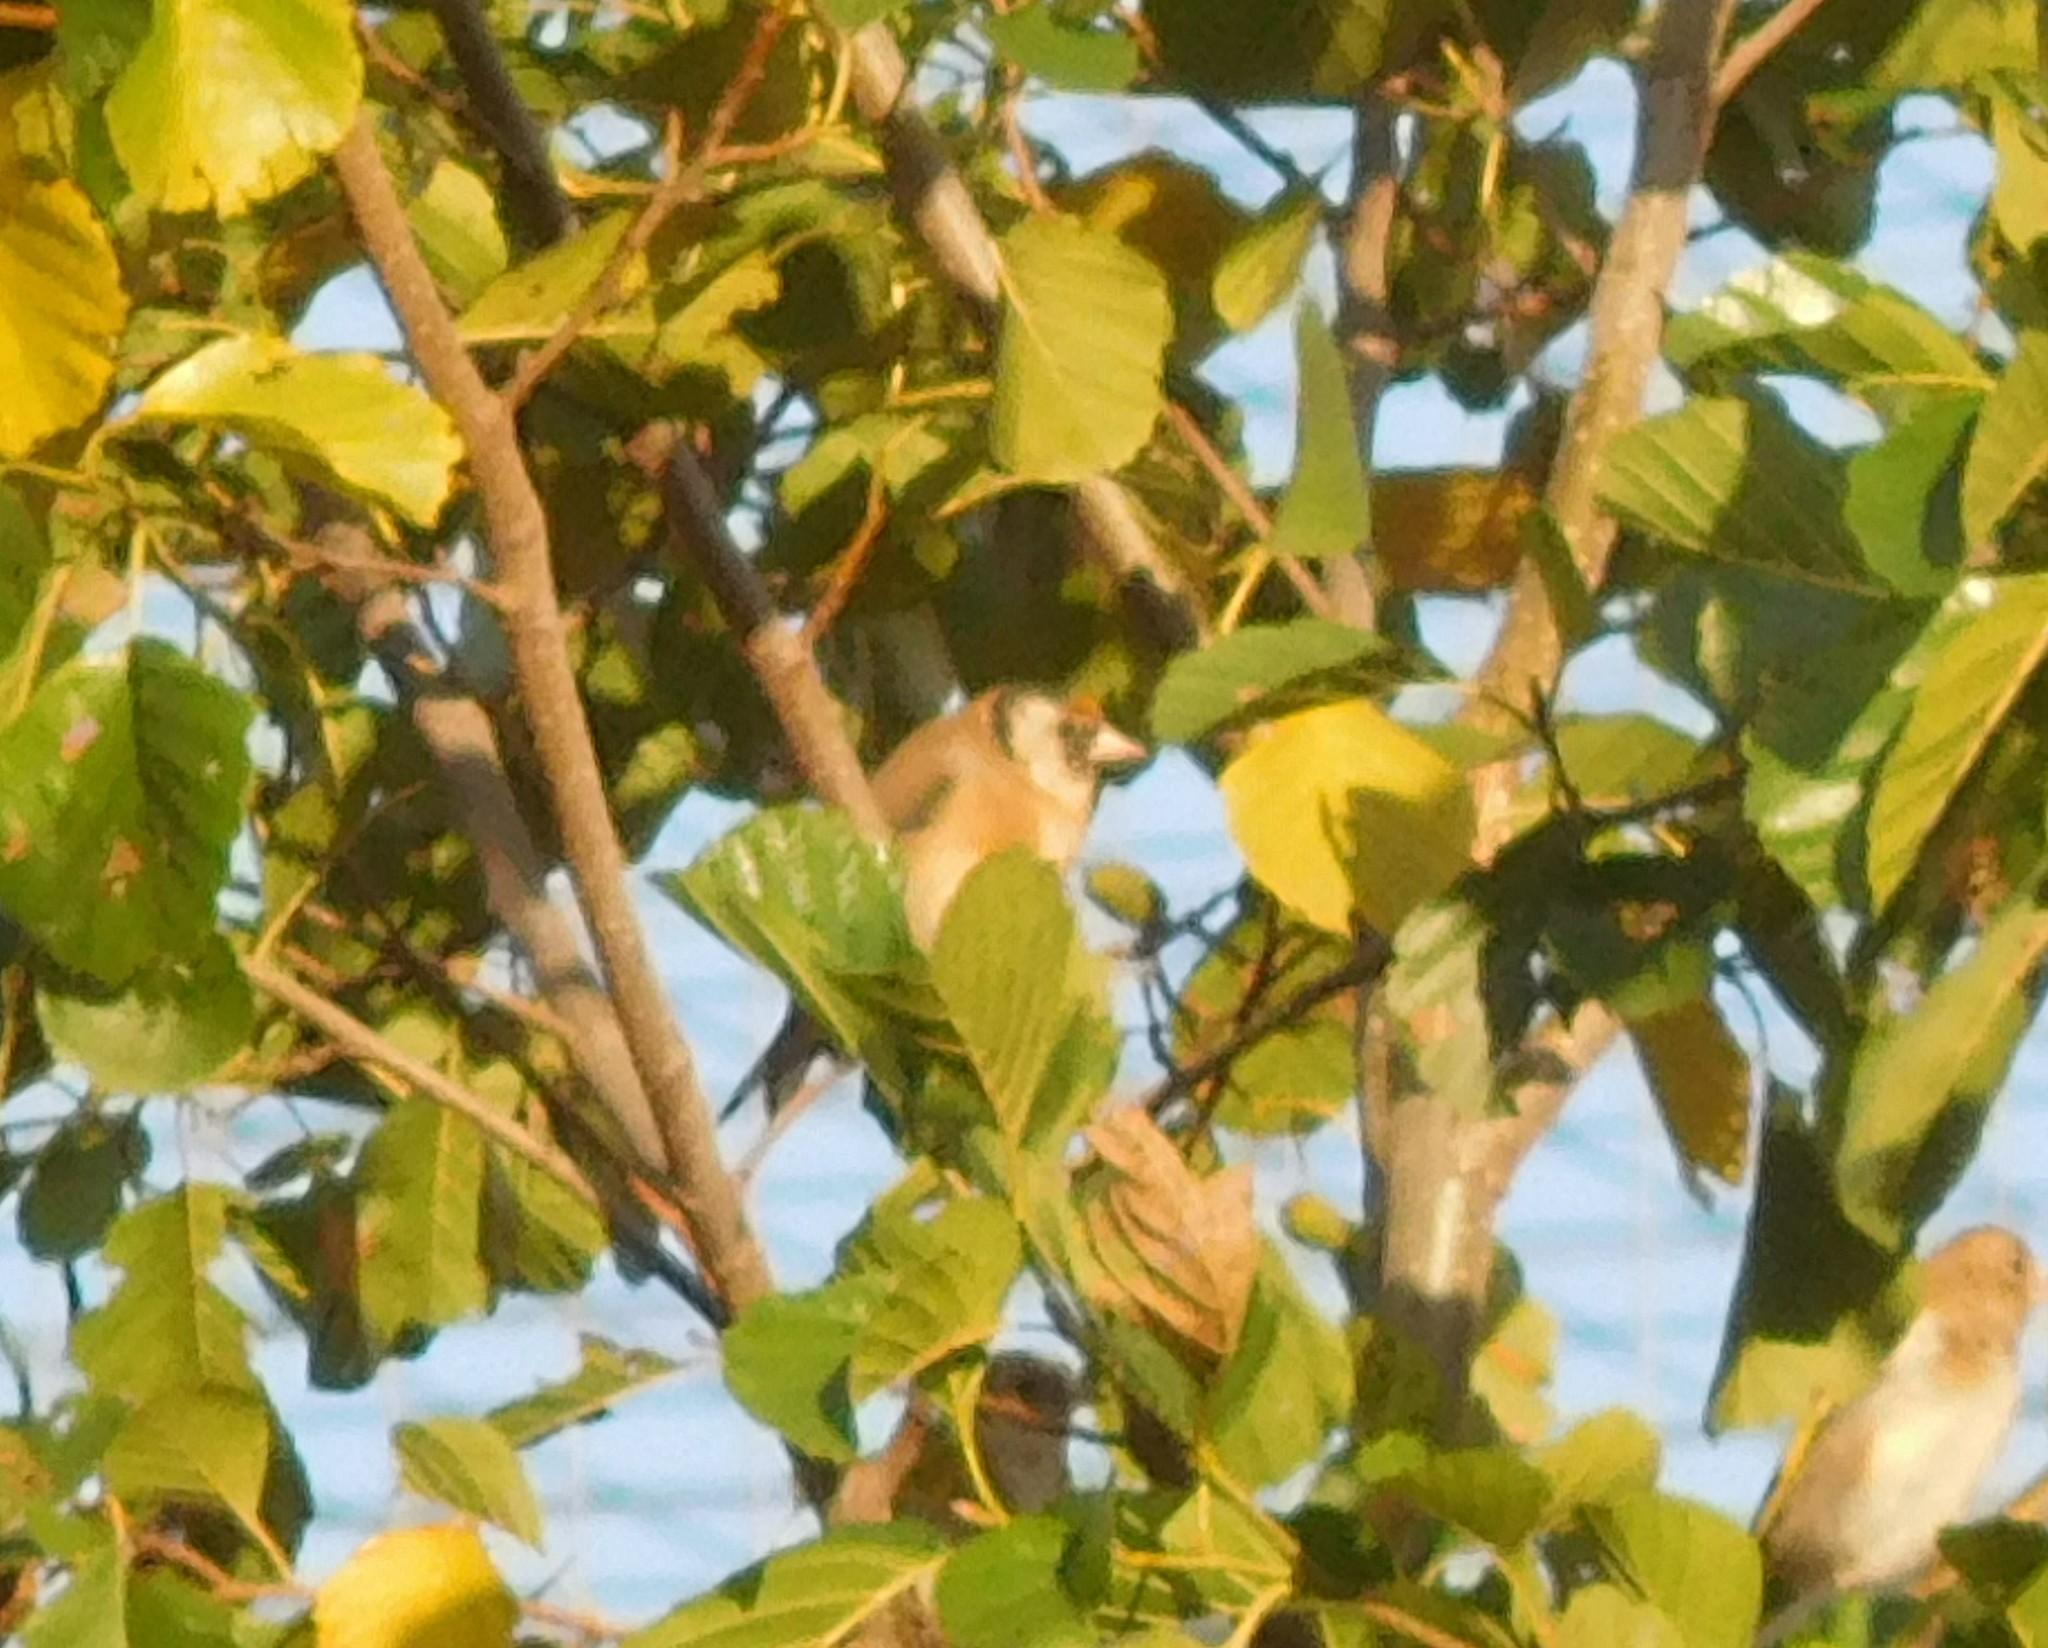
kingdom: Animalia
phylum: Chordata
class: Aves
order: Passeriformes
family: Fringillidae
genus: Carduelis
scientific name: Carduelis carduelis
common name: European goldfinch
